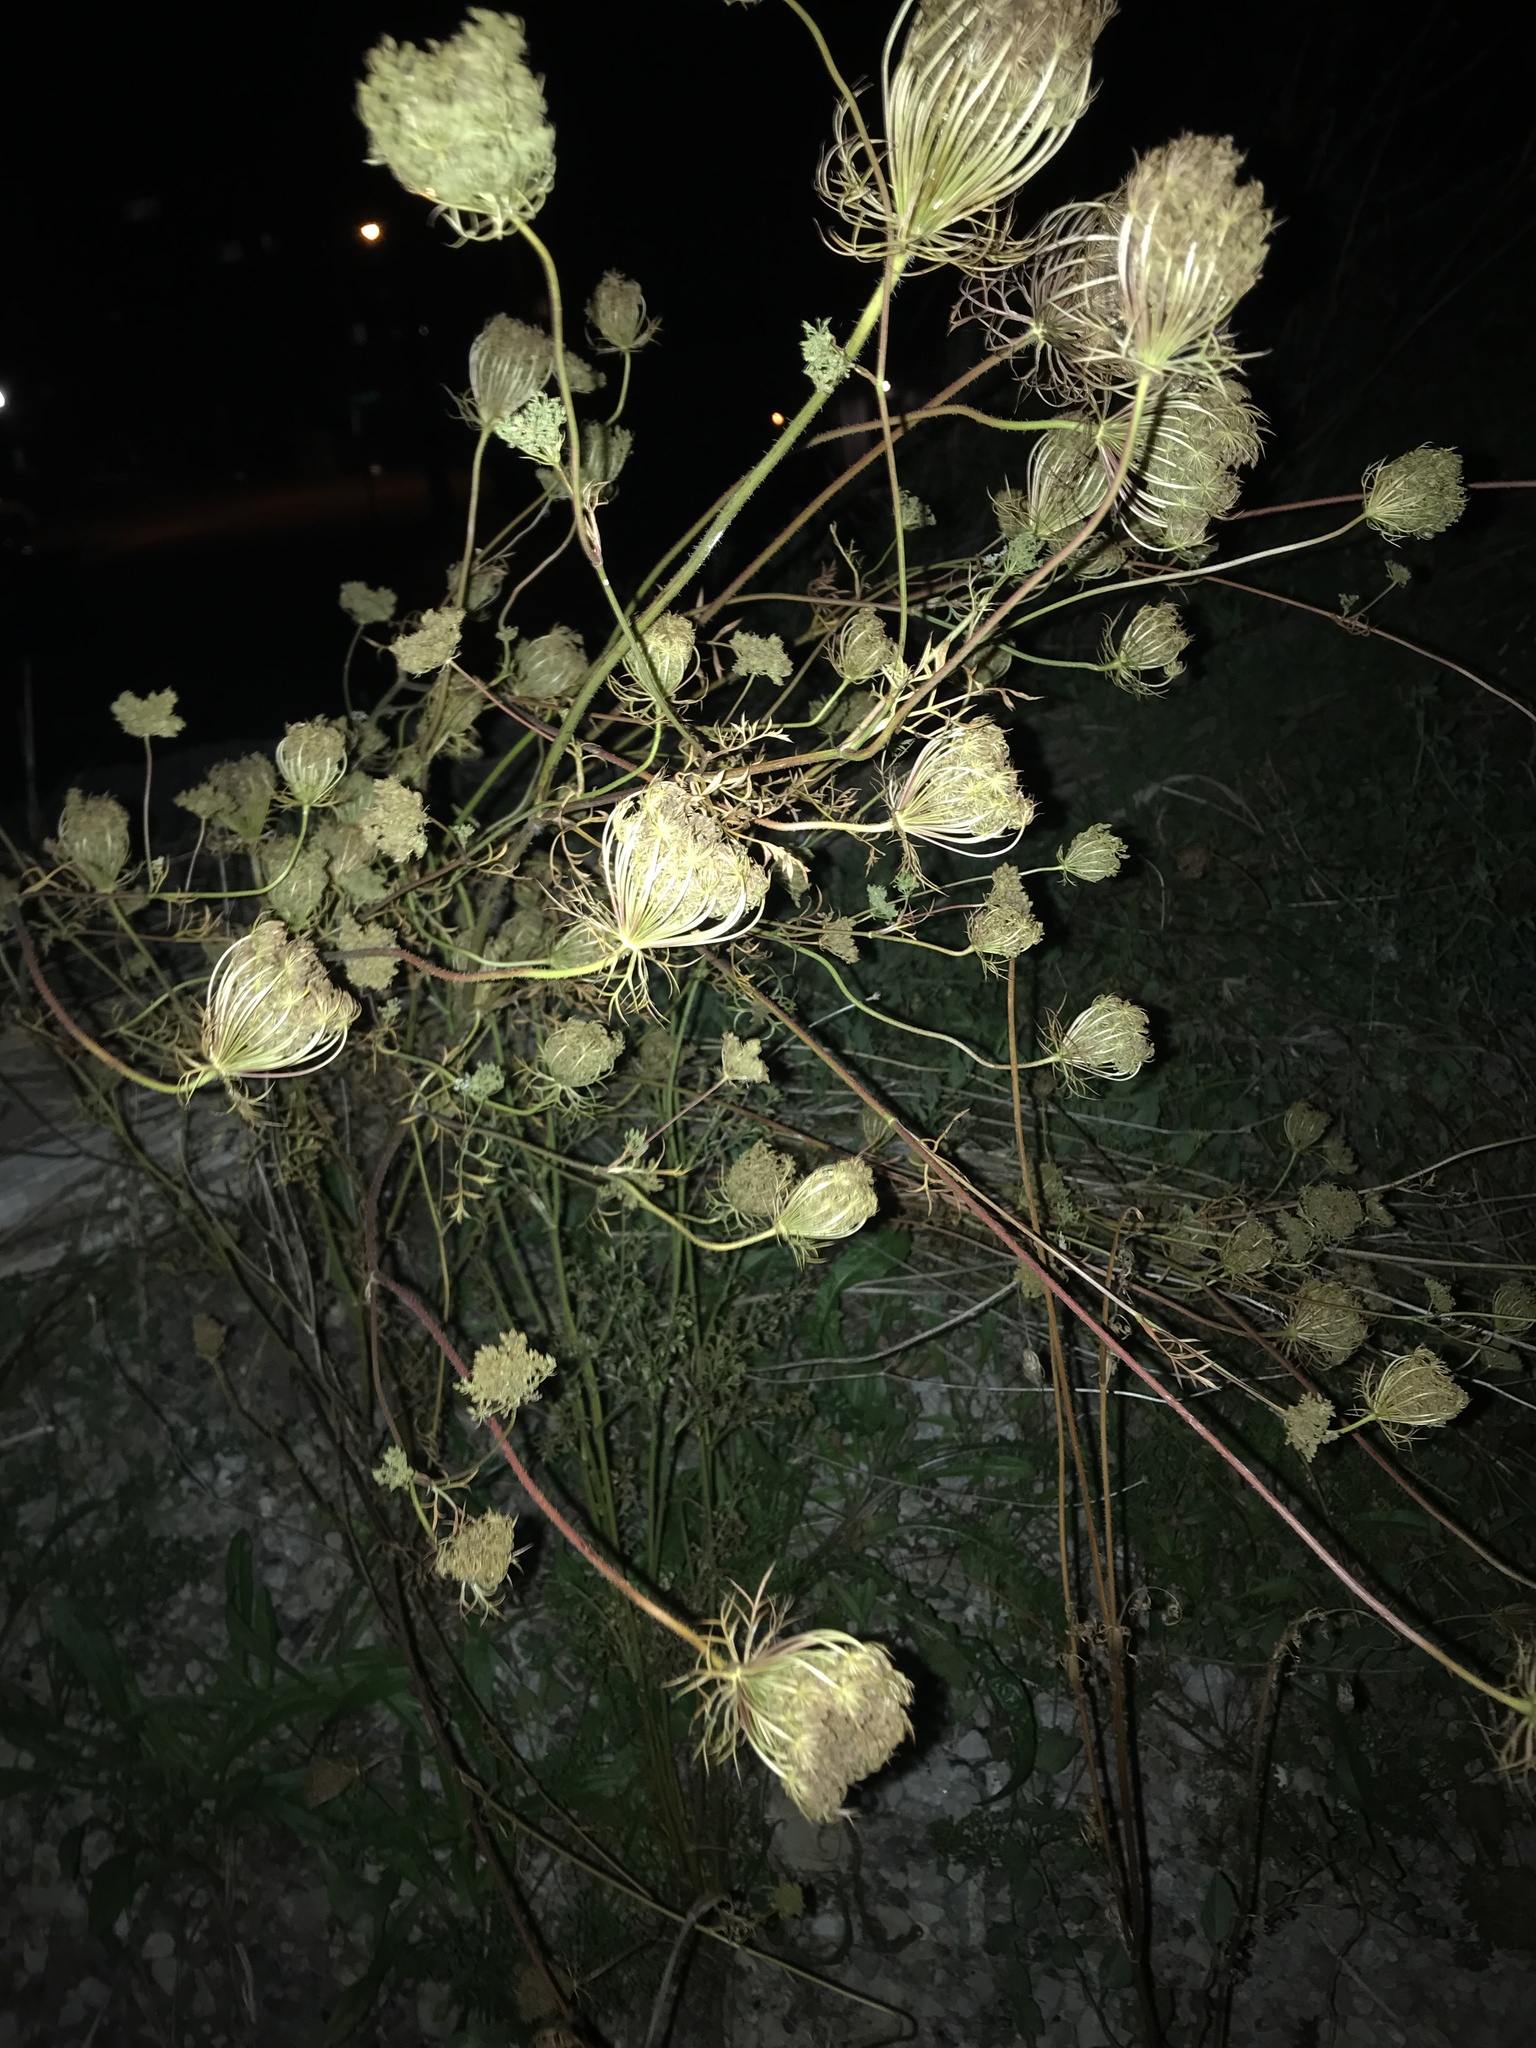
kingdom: Plantae
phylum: Tracheophyta
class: Magnoliopsida
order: Apiales
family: Apiaceae
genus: Daucus
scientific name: Daucus carota
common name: Wild carrot
